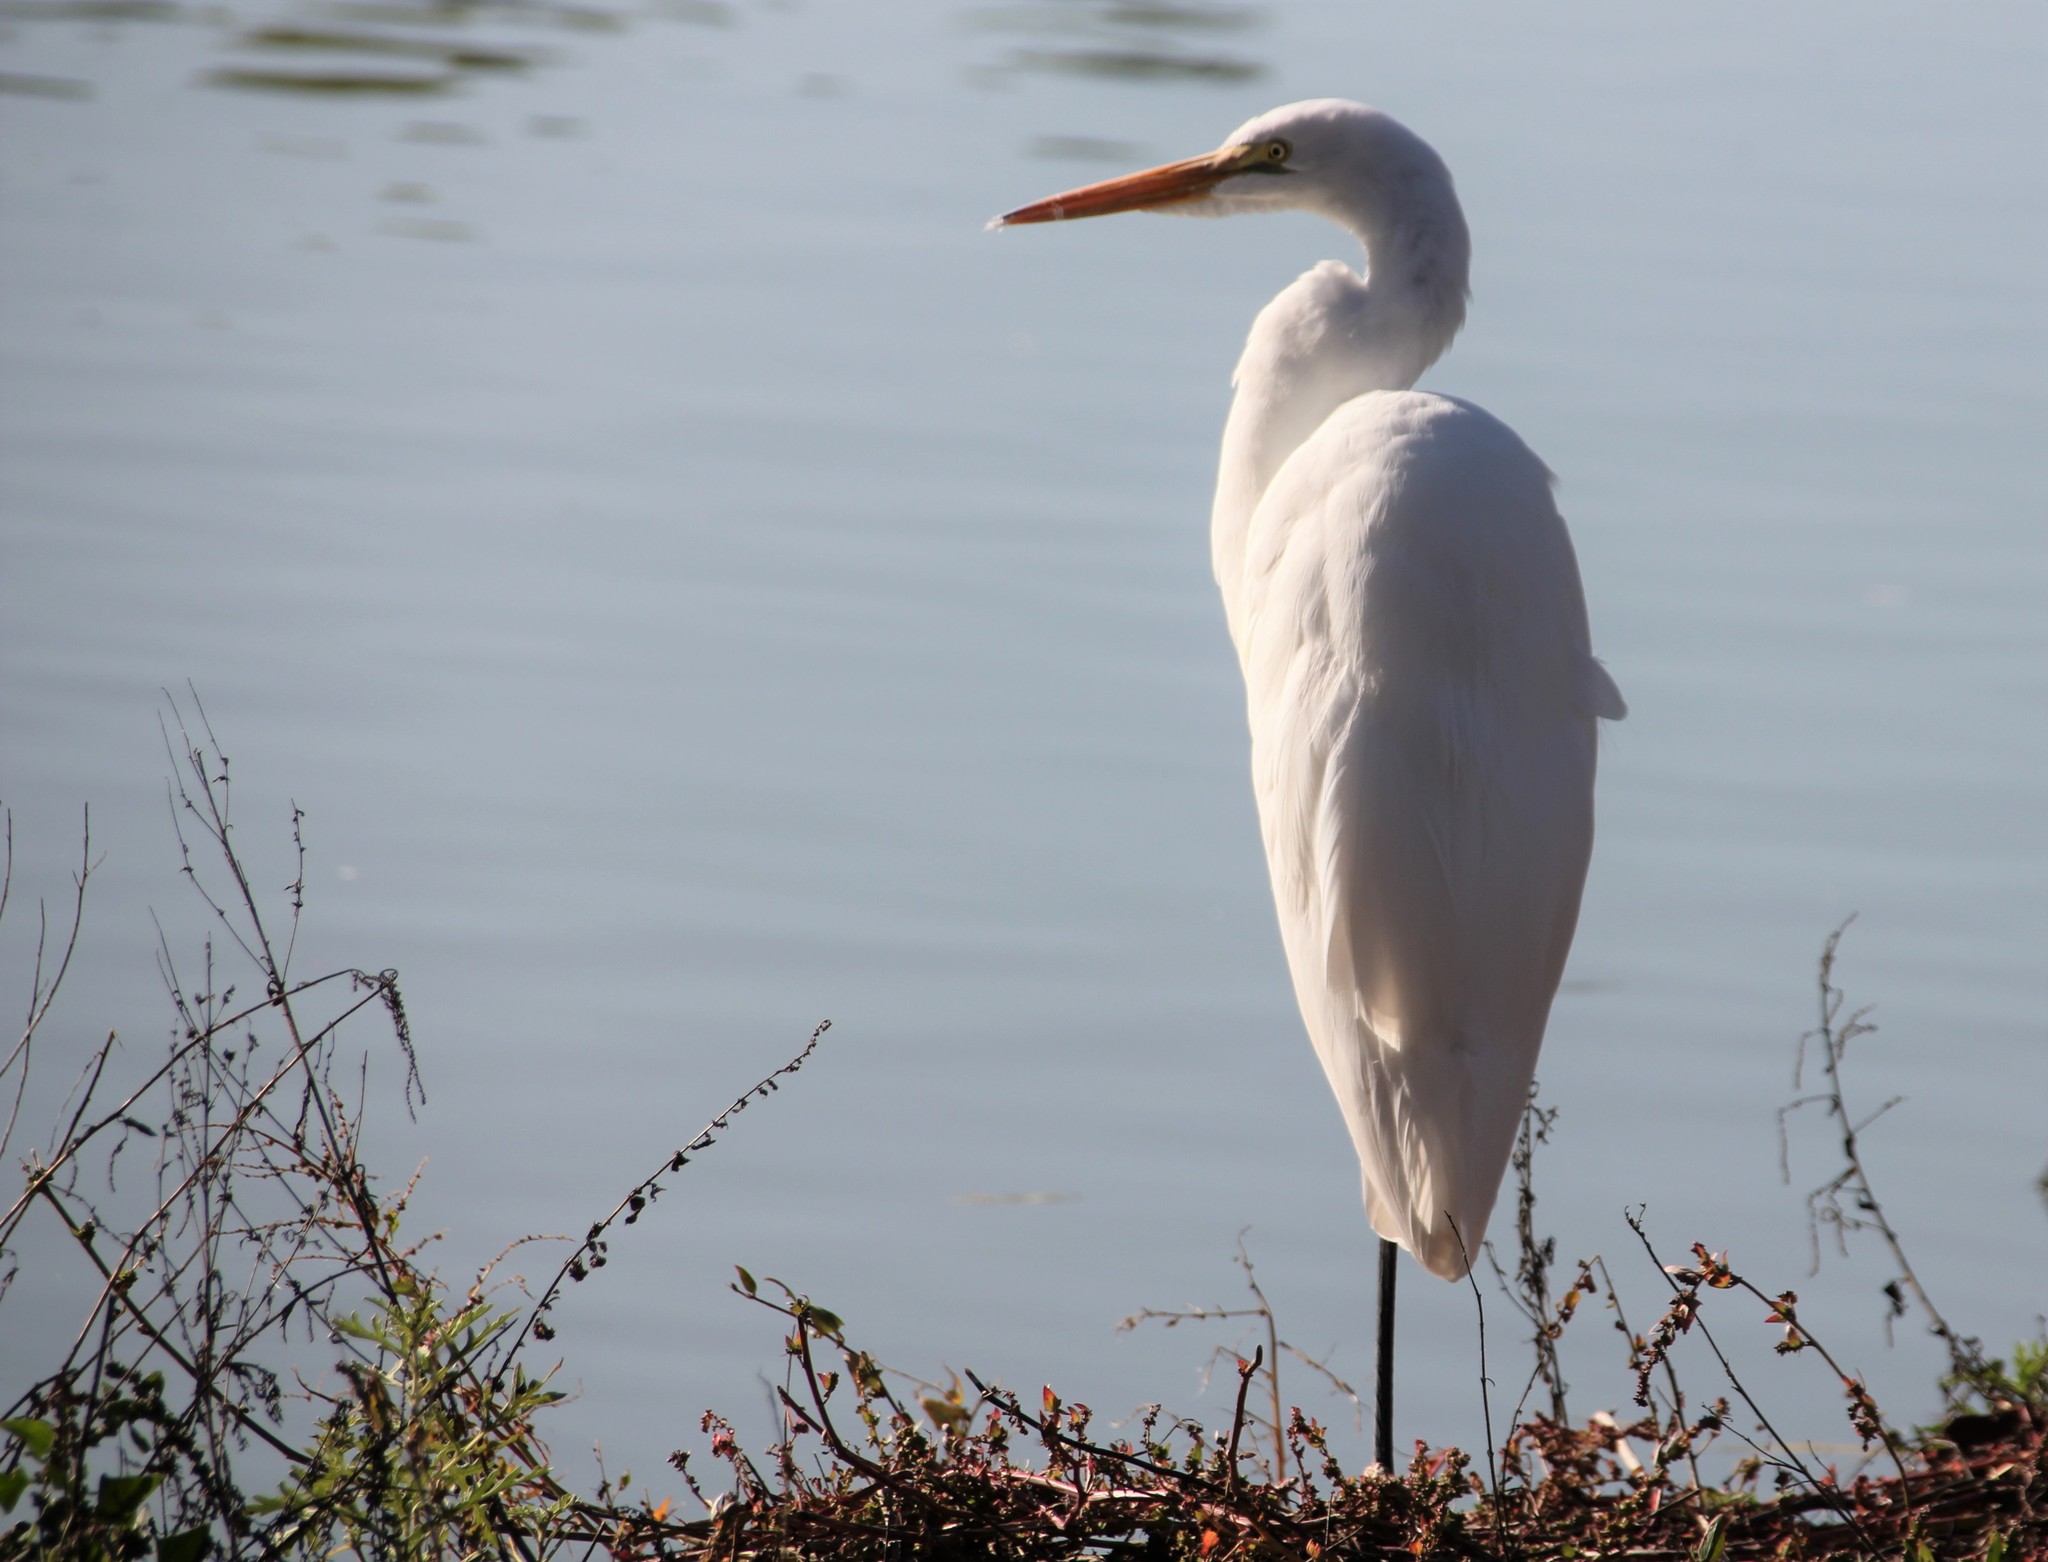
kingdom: Animalia
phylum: Chordata
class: Aves
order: Pelecaniformes
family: Ardeidae
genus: Ardea
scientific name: Ardea alba
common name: Great egret
